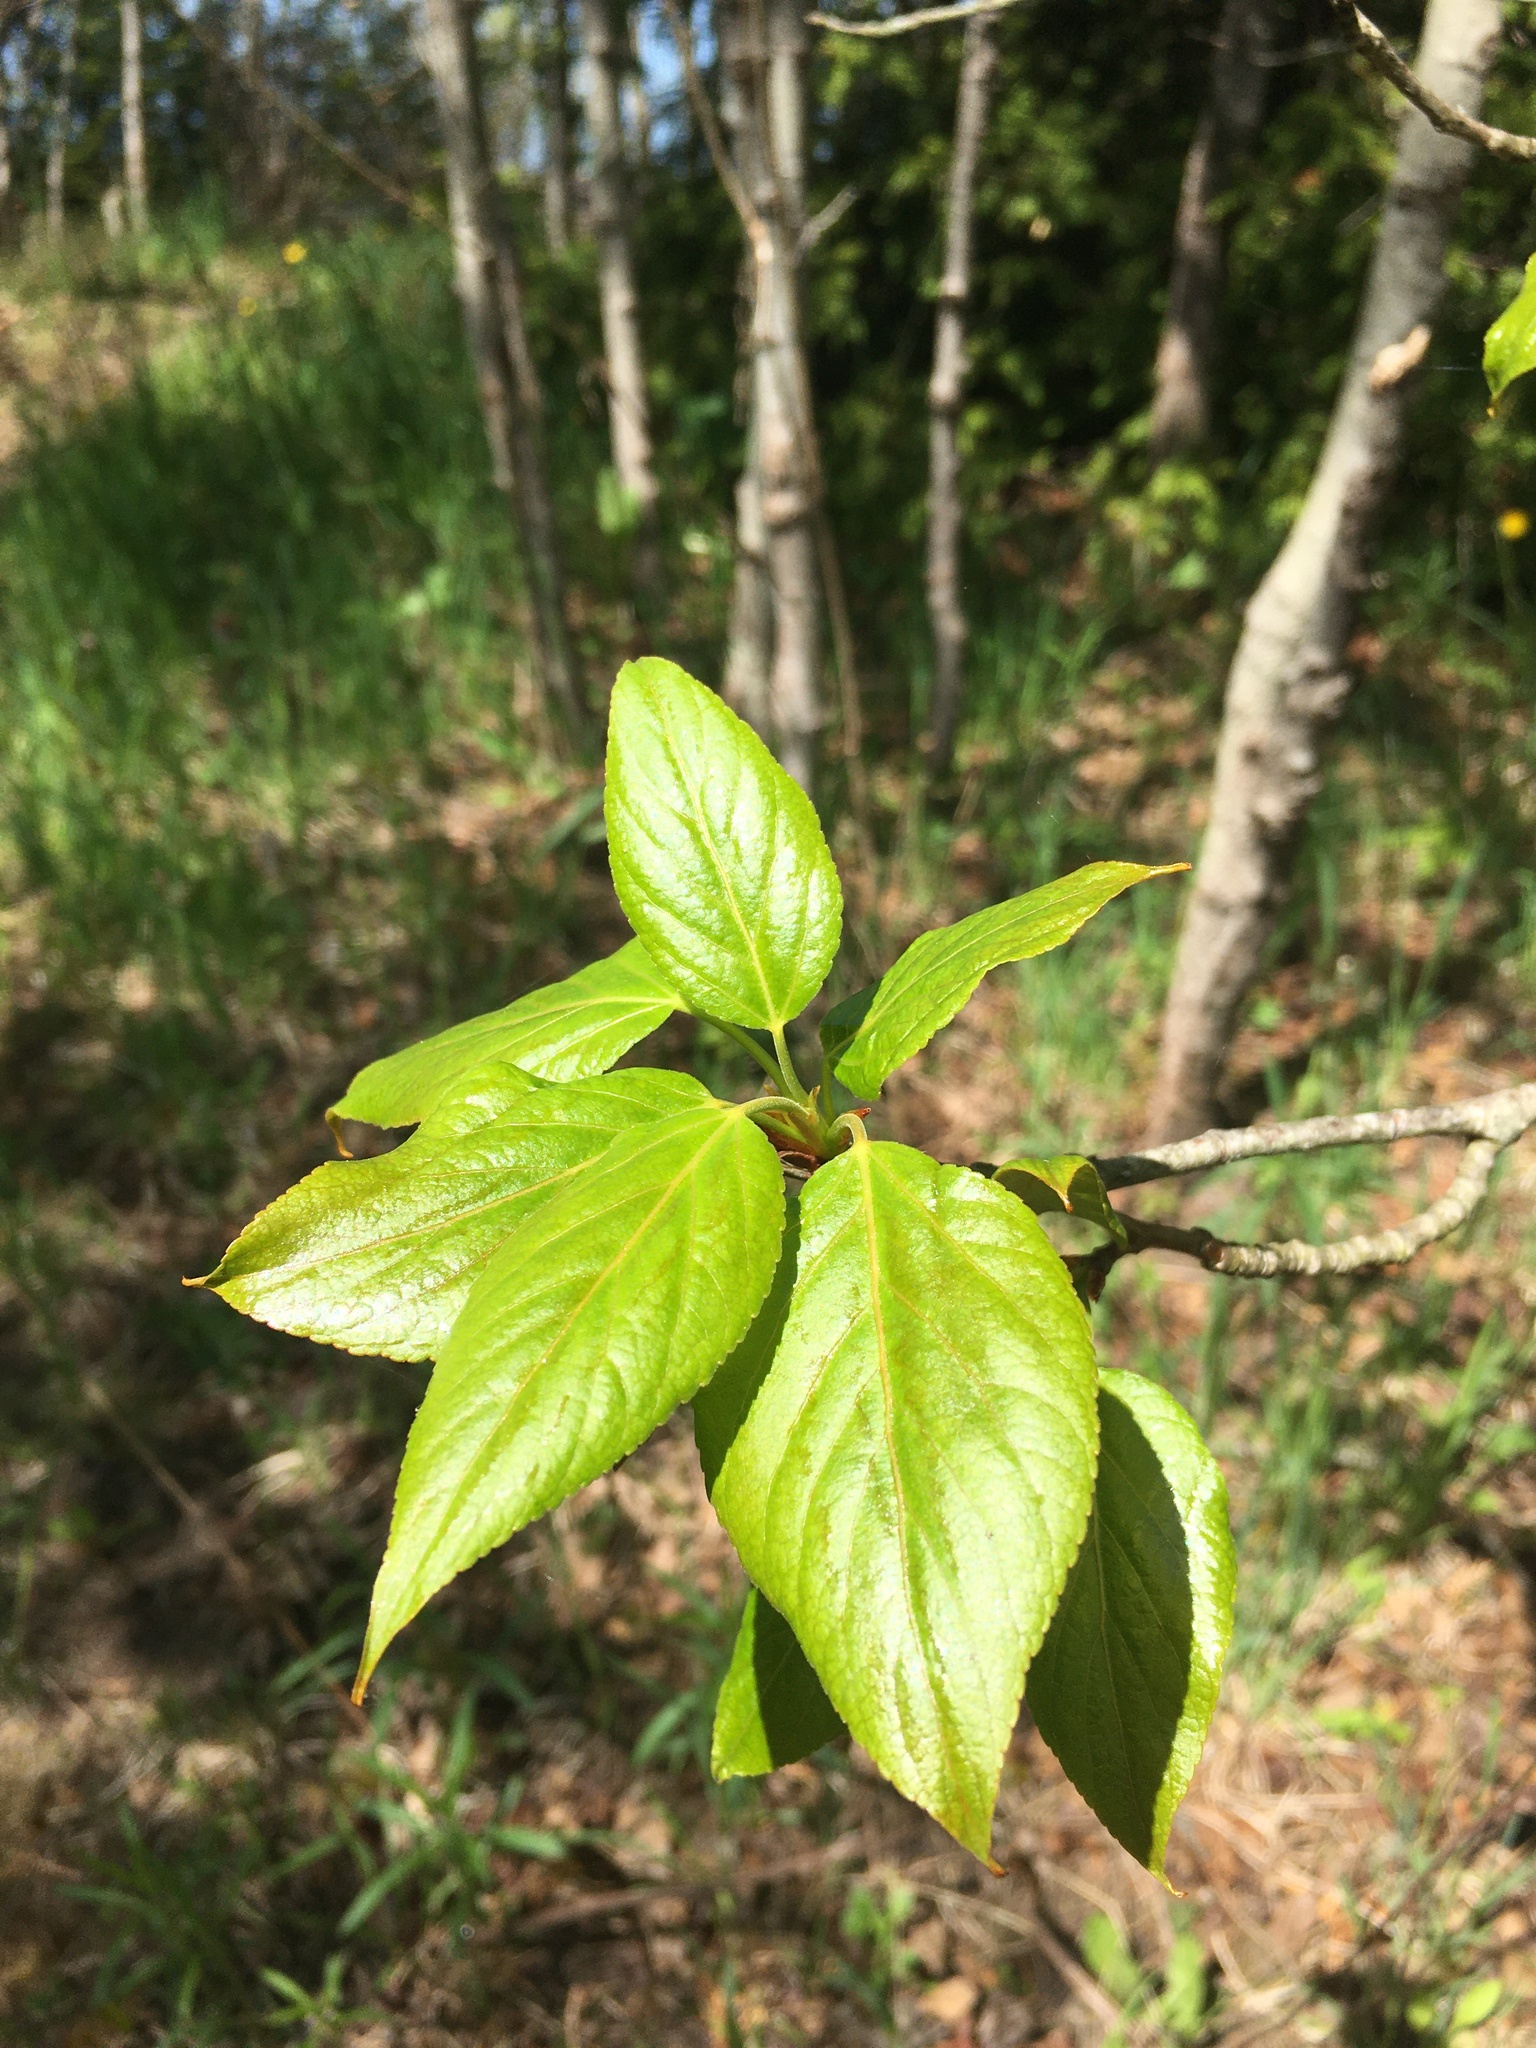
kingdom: Plantae
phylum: Tracheophyta
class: Magnoliopsida
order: Malpighiales
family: Salicaceae
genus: Populus
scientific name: Populus balsamifera
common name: Balsam poplar
